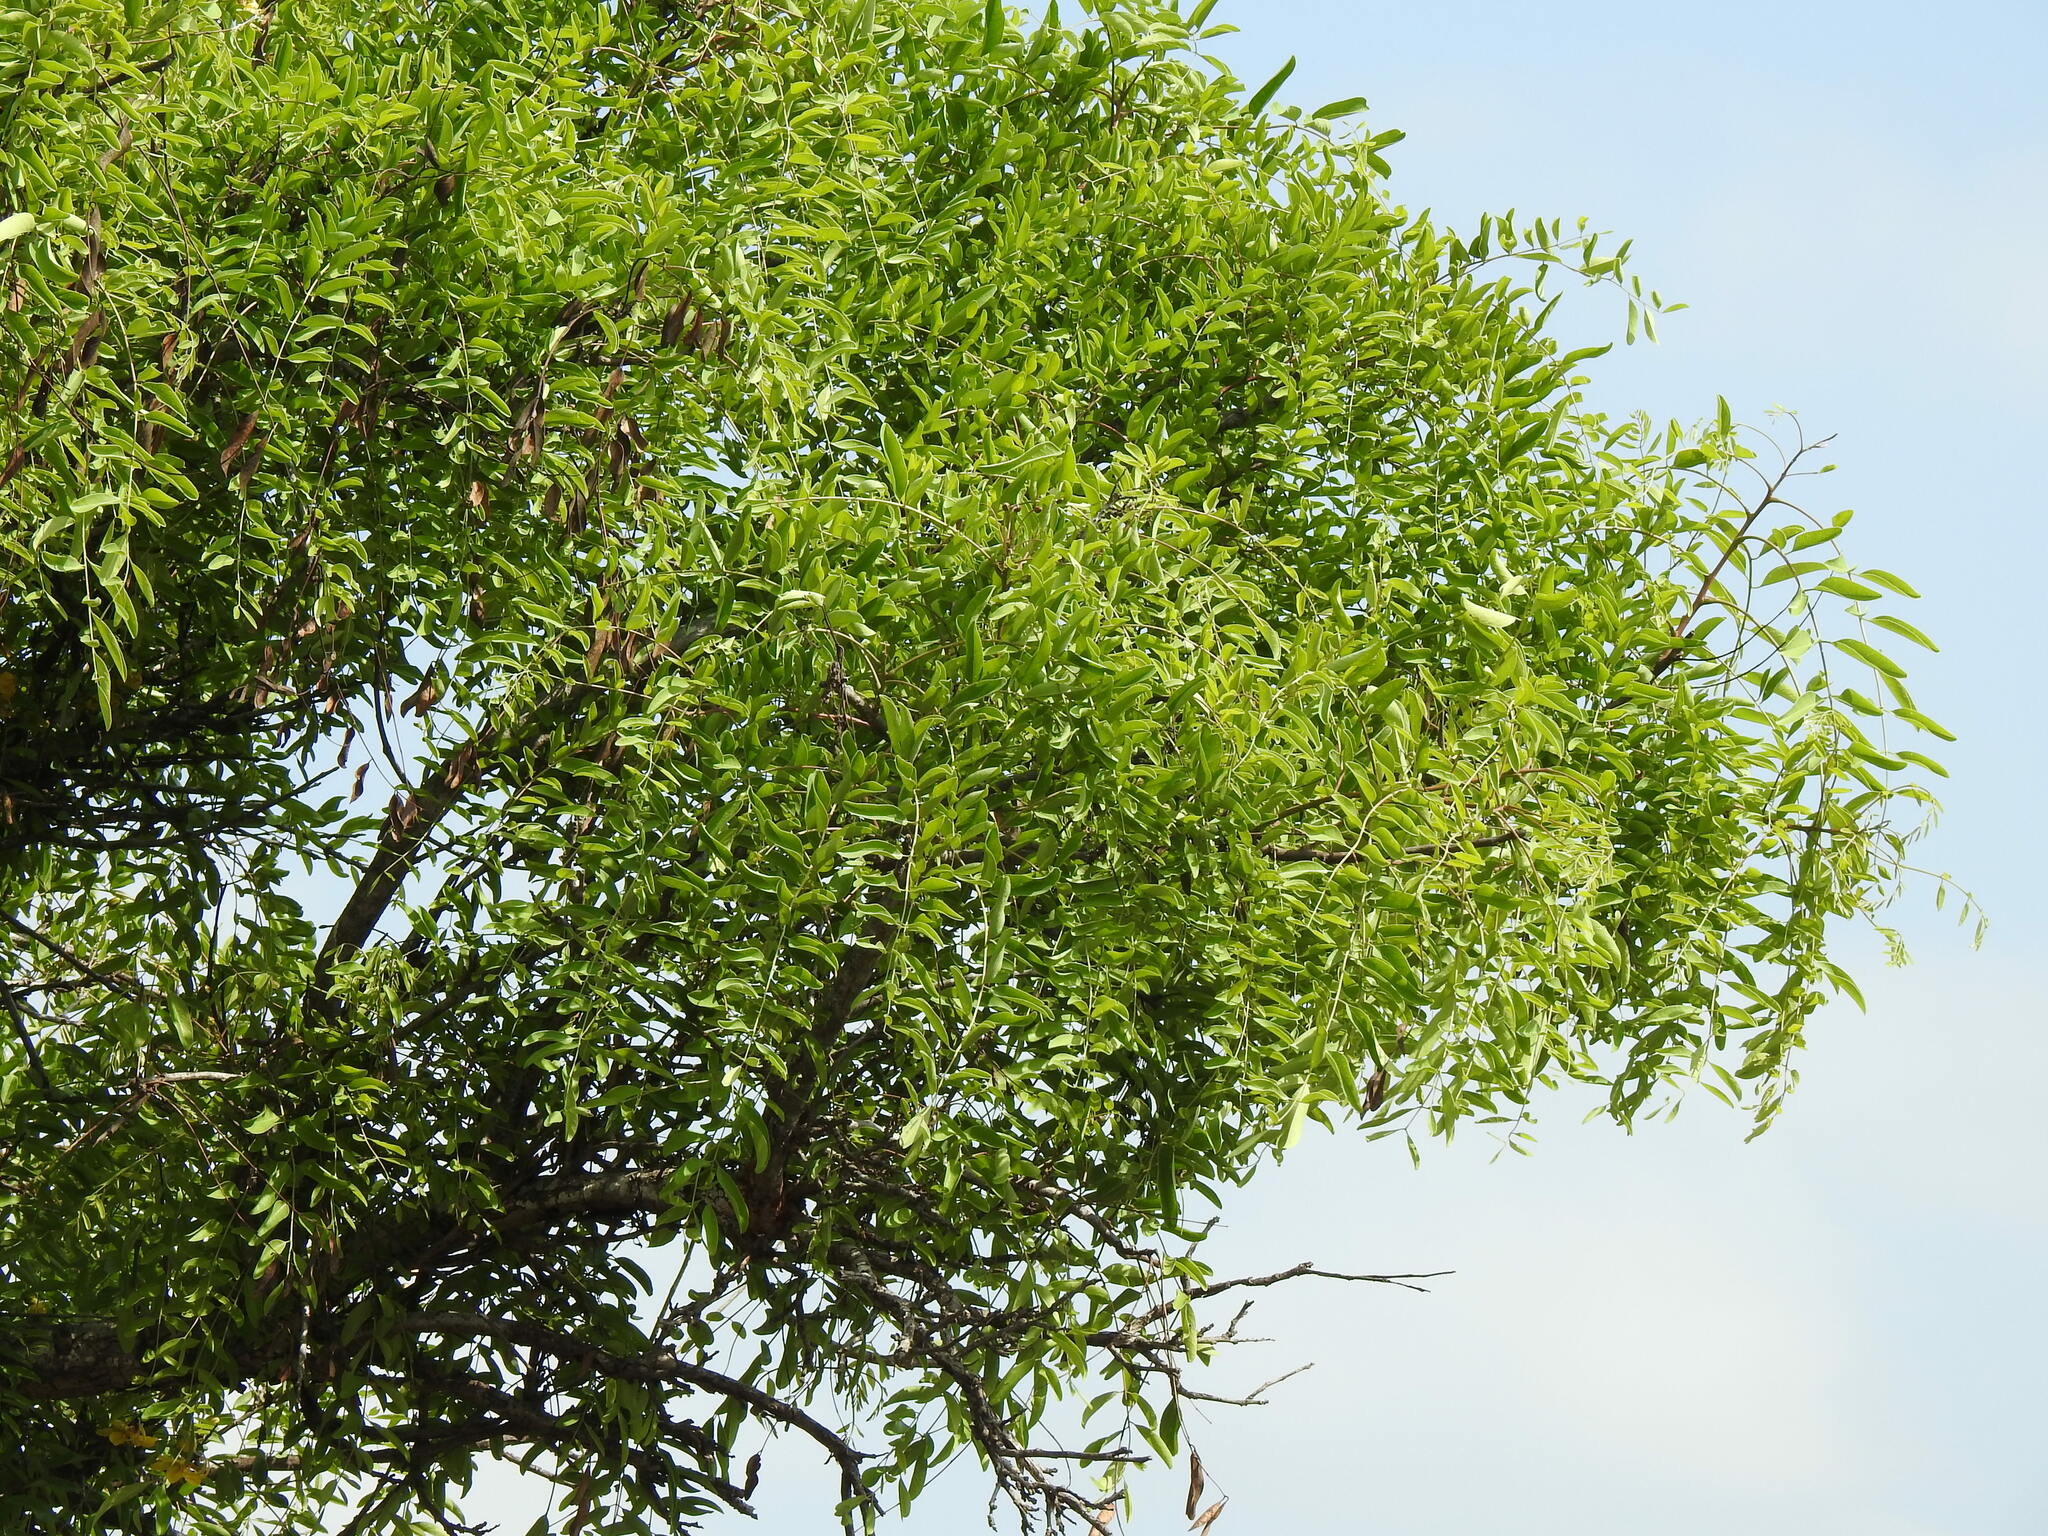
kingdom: Plantae
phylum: Tracheophyta
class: Magnoliopsida
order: Fabales
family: Fabaceae
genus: Cassia
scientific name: Cassia abbreviata
